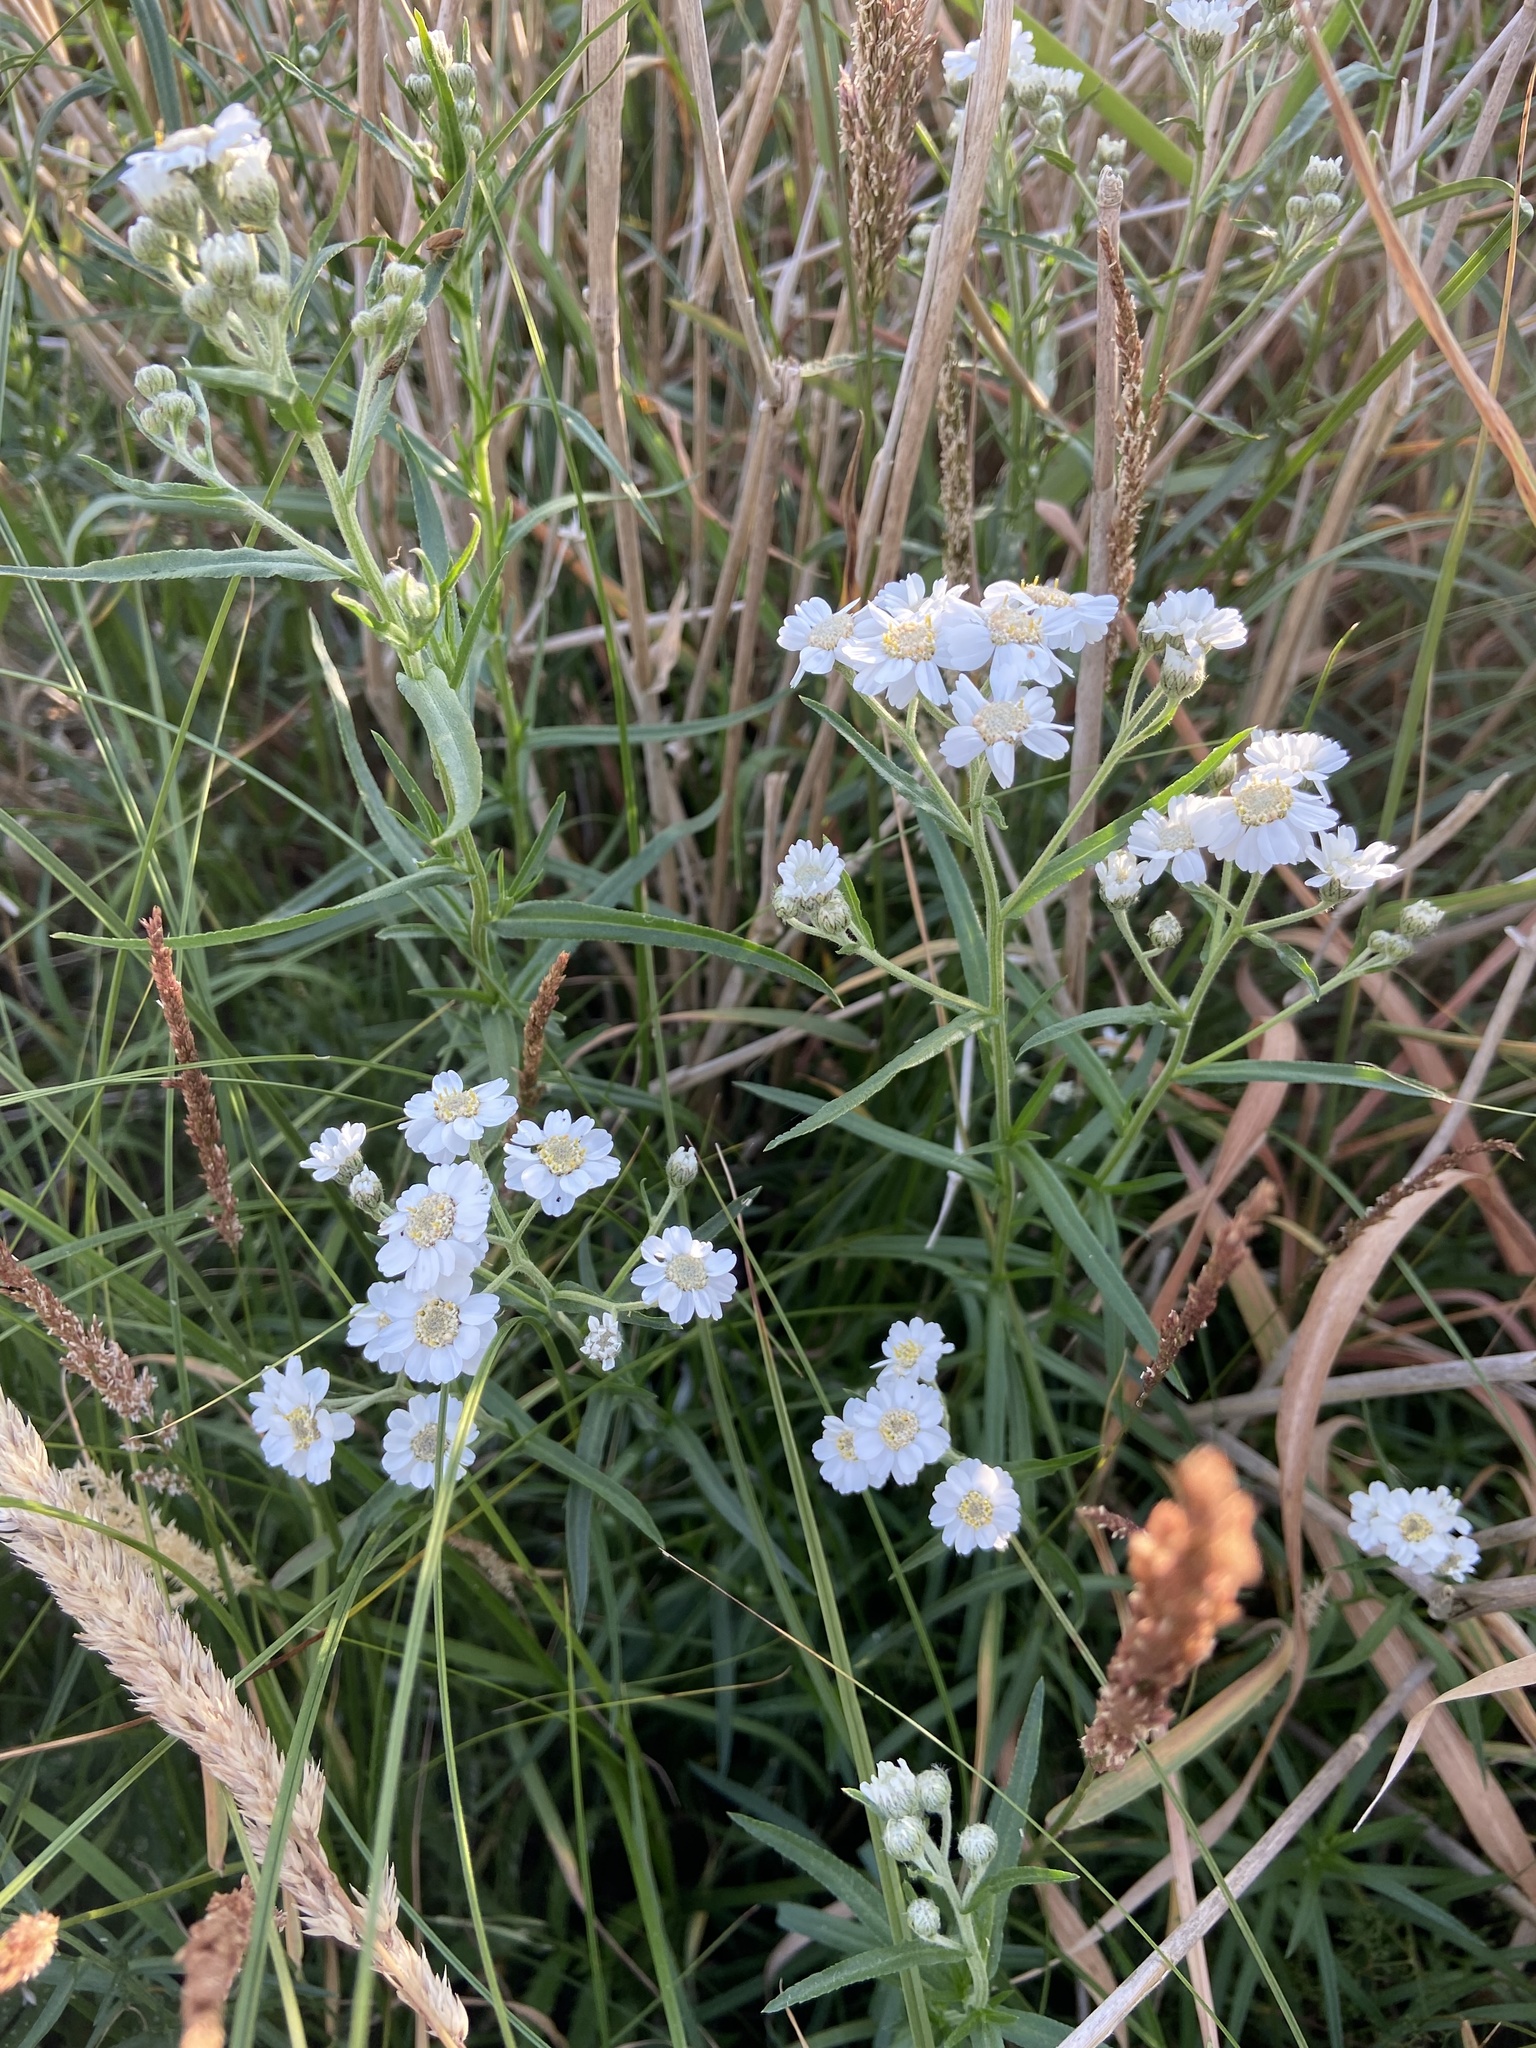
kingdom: Plantae
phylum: Tracheophyta
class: Magnoliopsida
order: Asterales
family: Asteraceae
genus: Achillea
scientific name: Achillea ptarmica
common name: Sneezeweed
